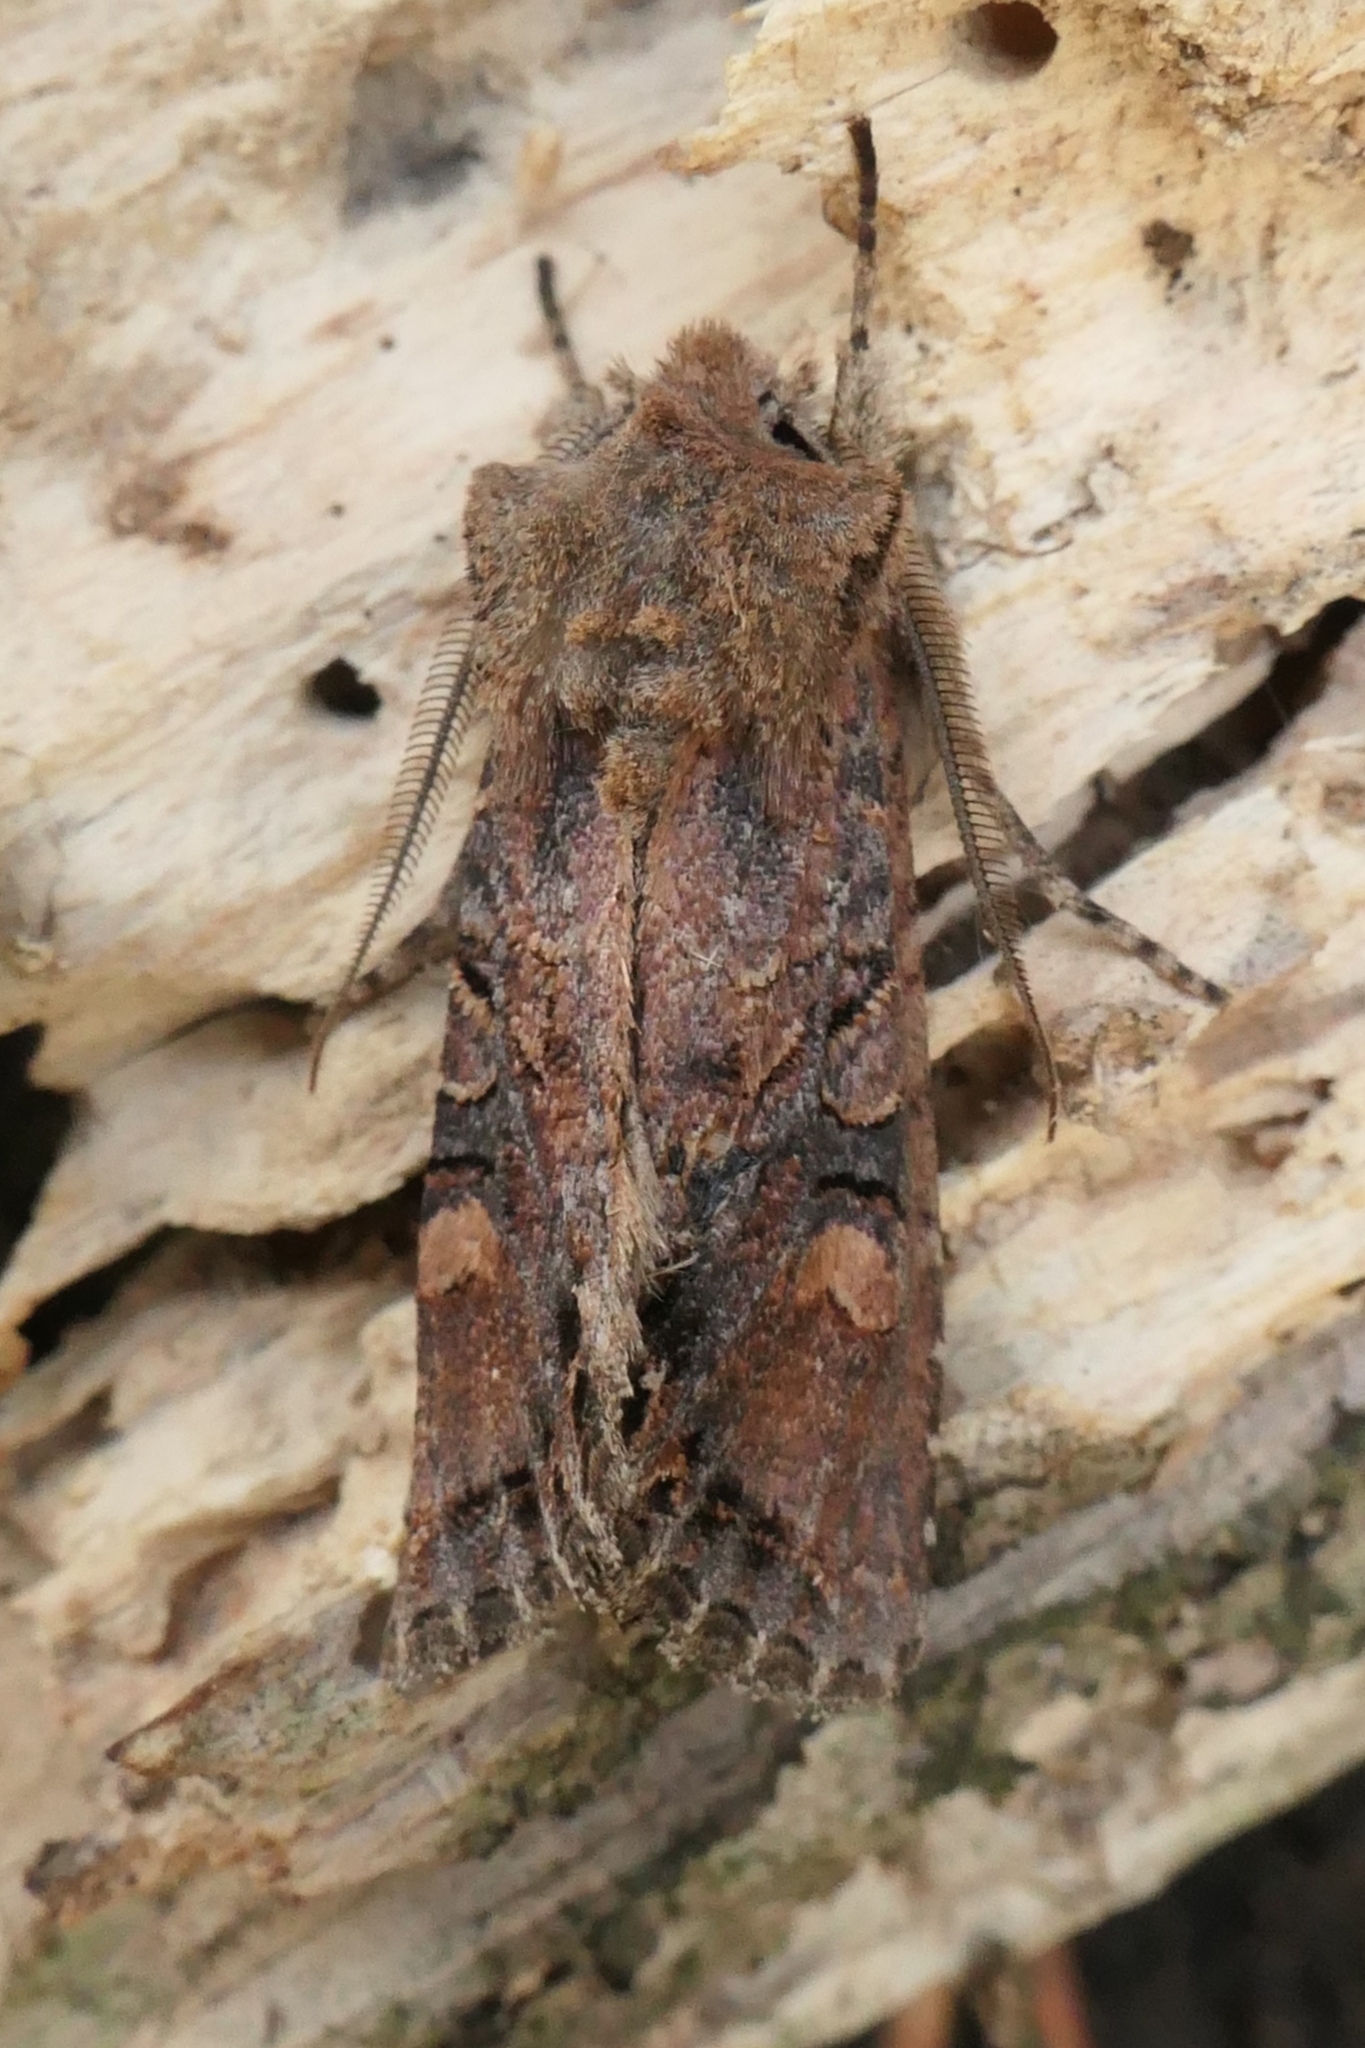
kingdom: Animalia
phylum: Arthropoda
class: Insecta
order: Lepidoptera
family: Noctuidae
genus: Ichneutica
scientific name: Ichneutica skelloni
